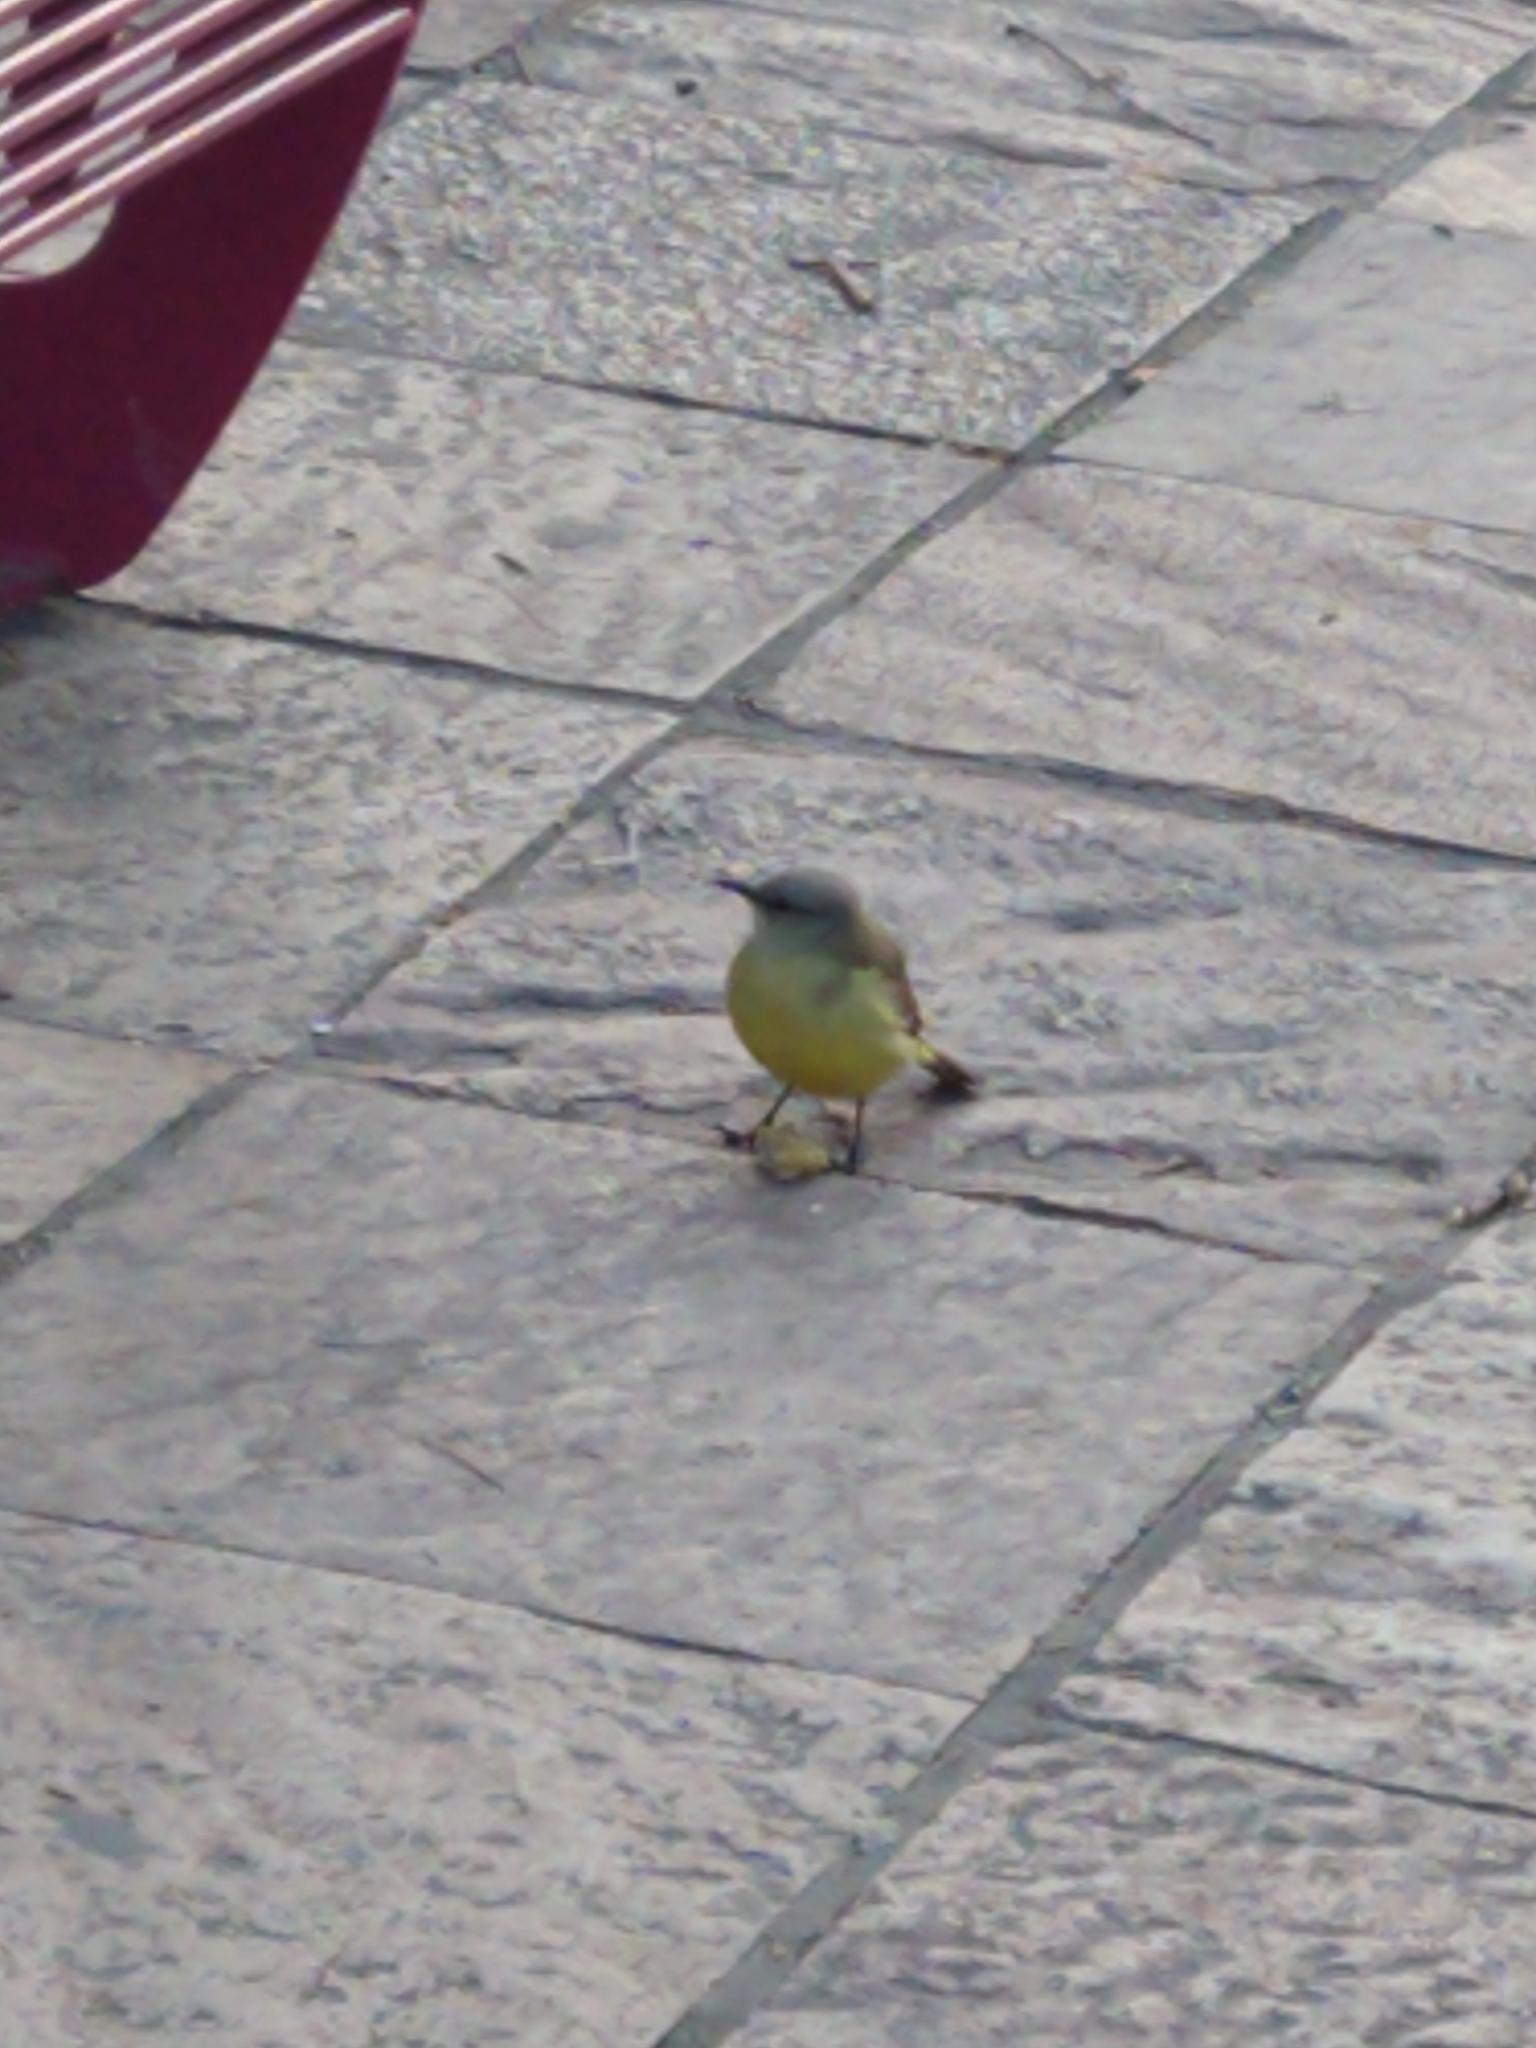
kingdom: Animalia
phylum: Chordata
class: Aves
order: Passeriformes
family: Tyrannidae
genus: Machetornis
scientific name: Machetornis rixosa
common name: Cattle tyrant
